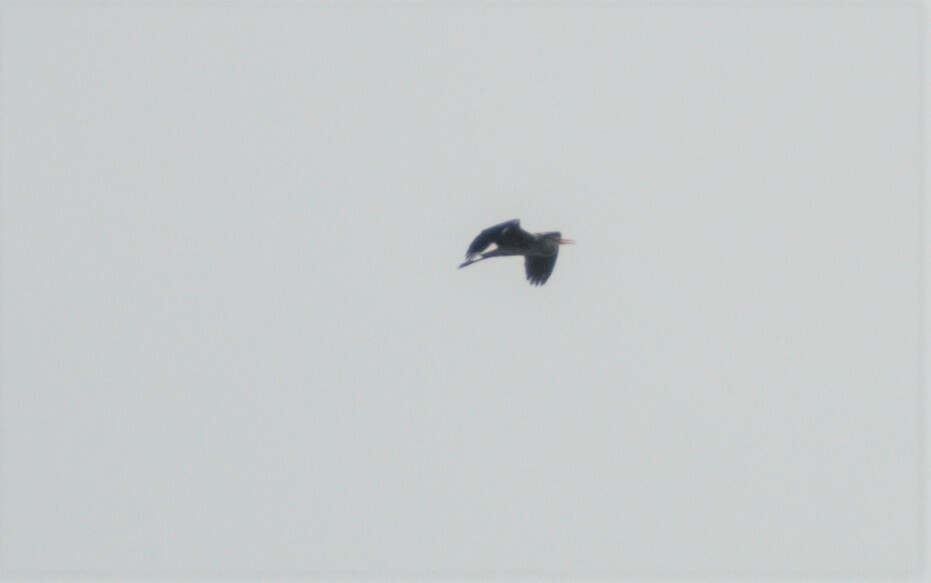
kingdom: Animalia
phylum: Chordata
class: Aves
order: Pelecaniformes
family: Ardeidae
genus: Ardea
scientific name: Ardea cinerea
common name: Grey heron
